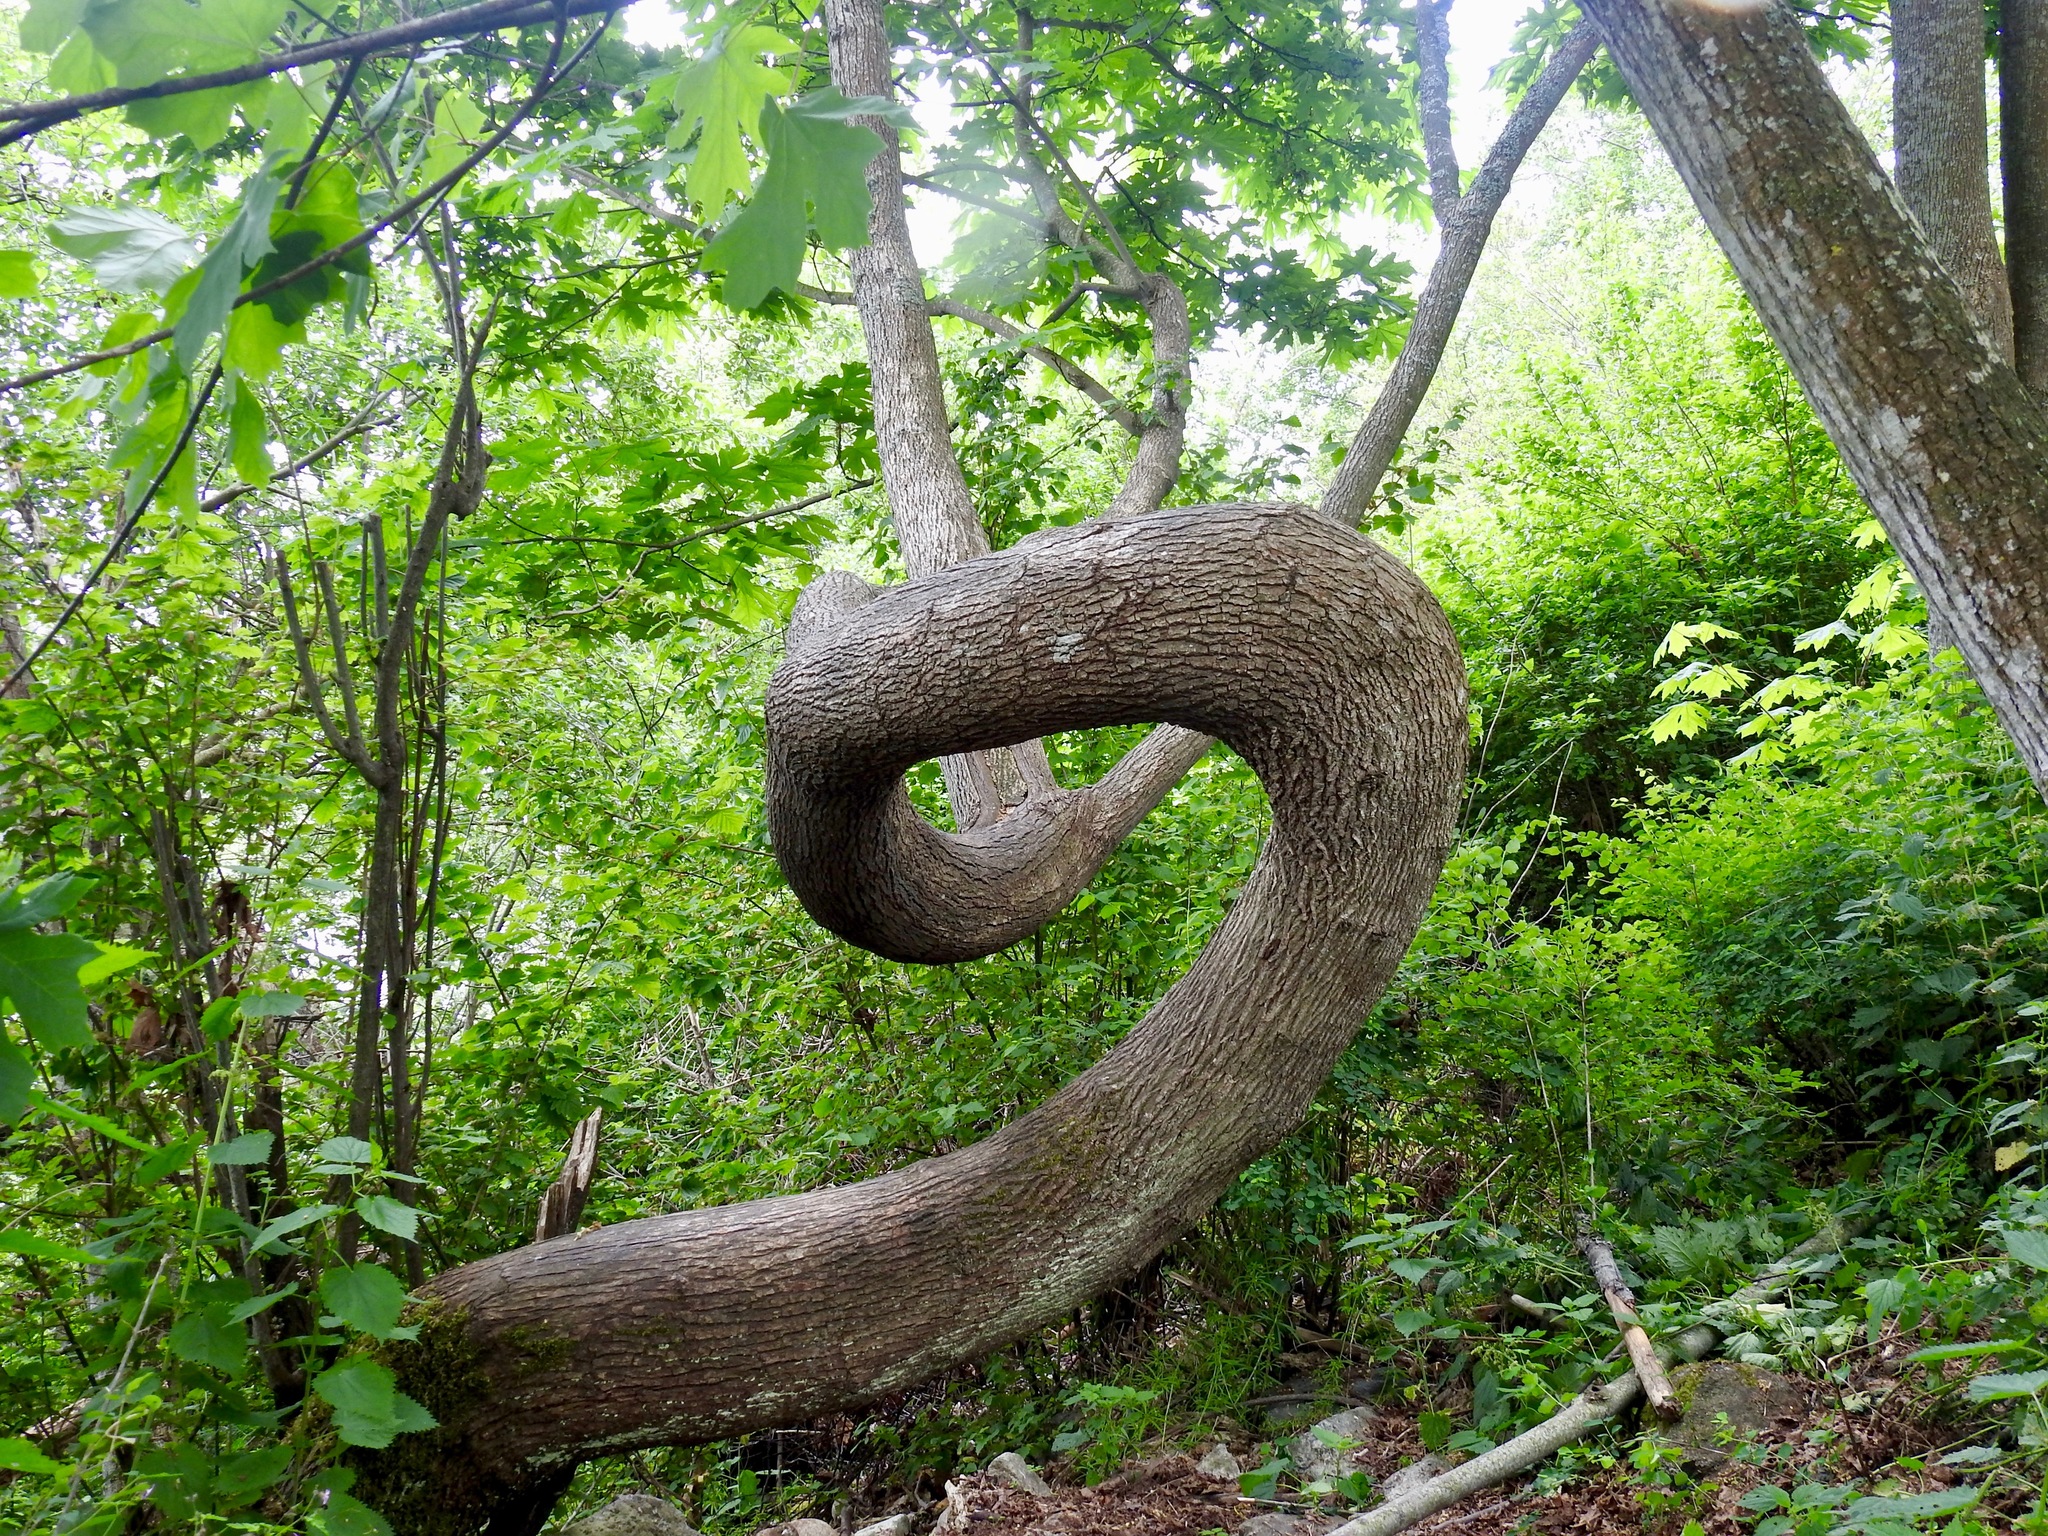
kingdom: Plantae
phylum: Tracheophyta
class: Magnoliopsida
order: Sapindales
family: Sapindaceae
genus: Acer
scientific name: Acer macrophyllum
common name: Oregon maple
